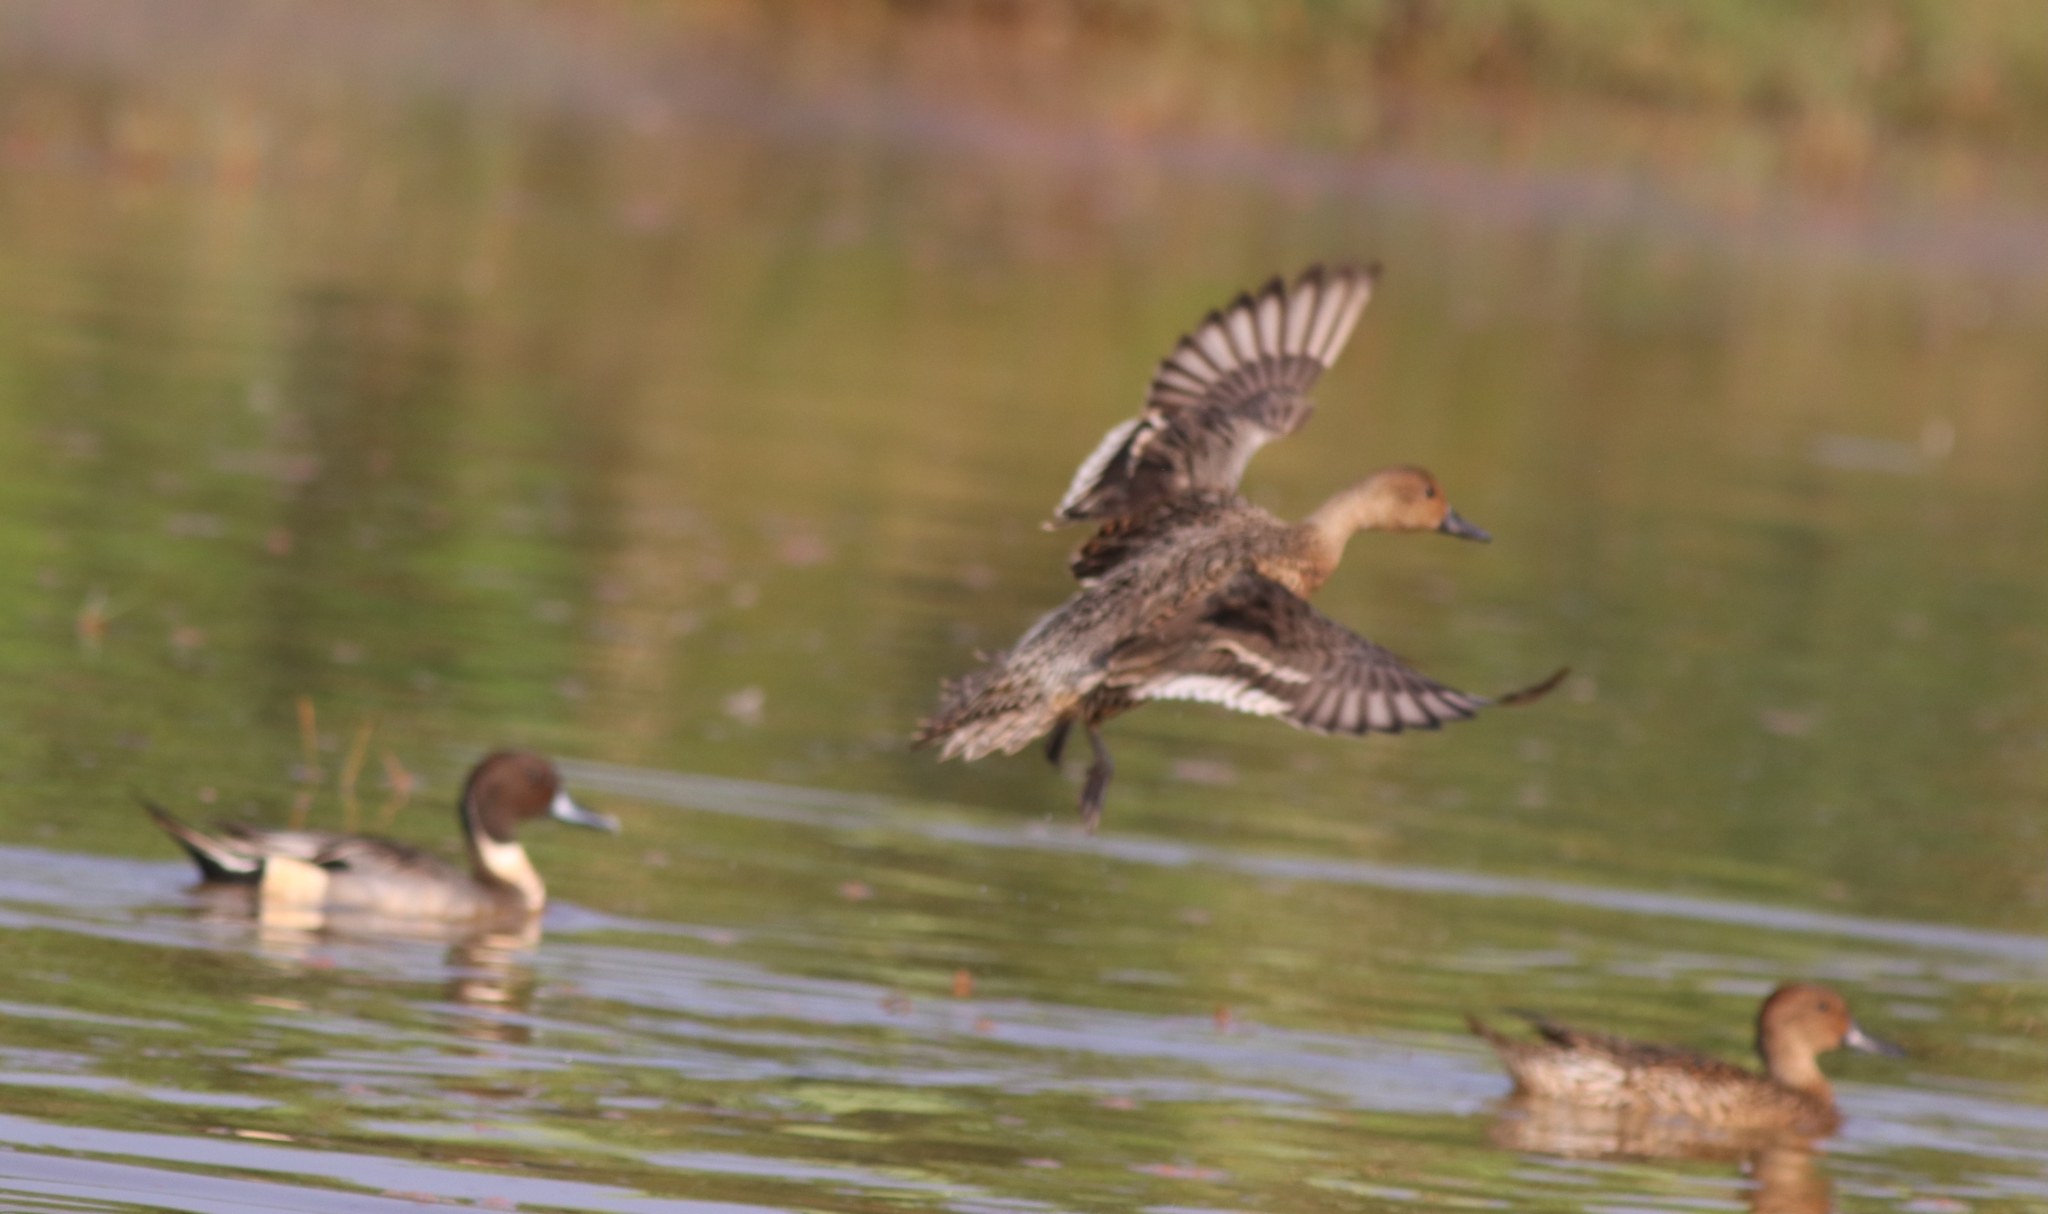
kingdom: Animalia
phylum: Chordata
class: Aves
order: Anseriformes
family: Anatidae
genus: Anas
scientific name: Anas acuta
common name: Northern pintail
